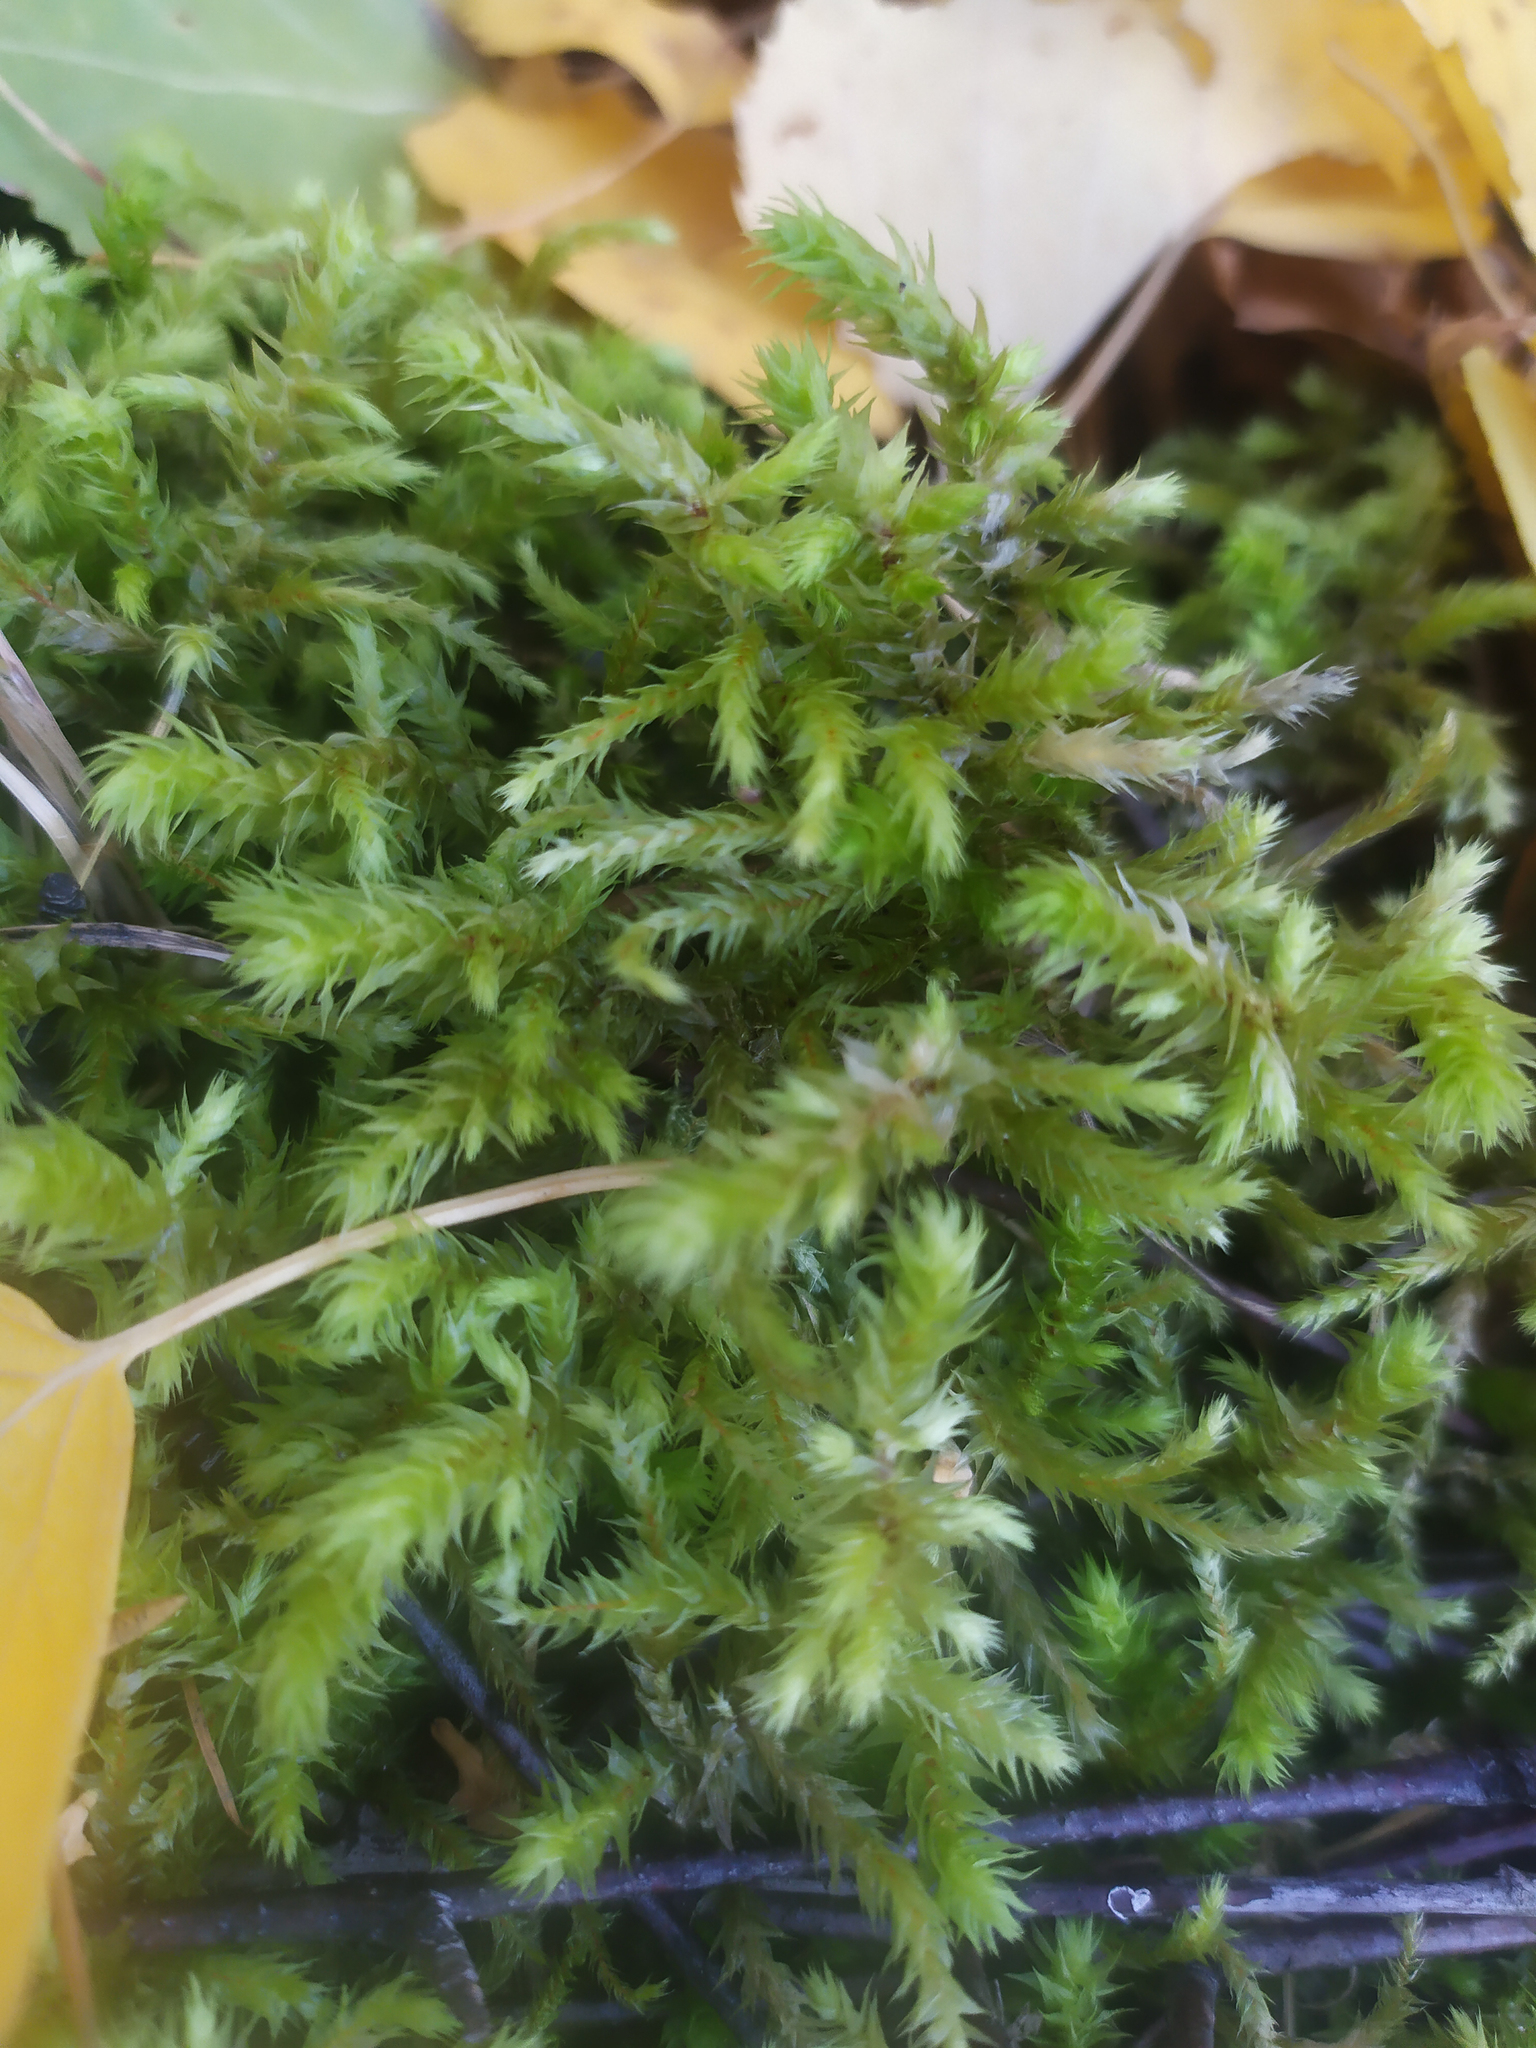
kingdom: Plantae
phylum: Bryophyta
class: Bryopsida
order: Hypnales
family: Hylocomiaceae
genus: Hylocomiadelphus
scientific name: Hylocomiadelphus triquetrus
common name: Rough goose neck moss
